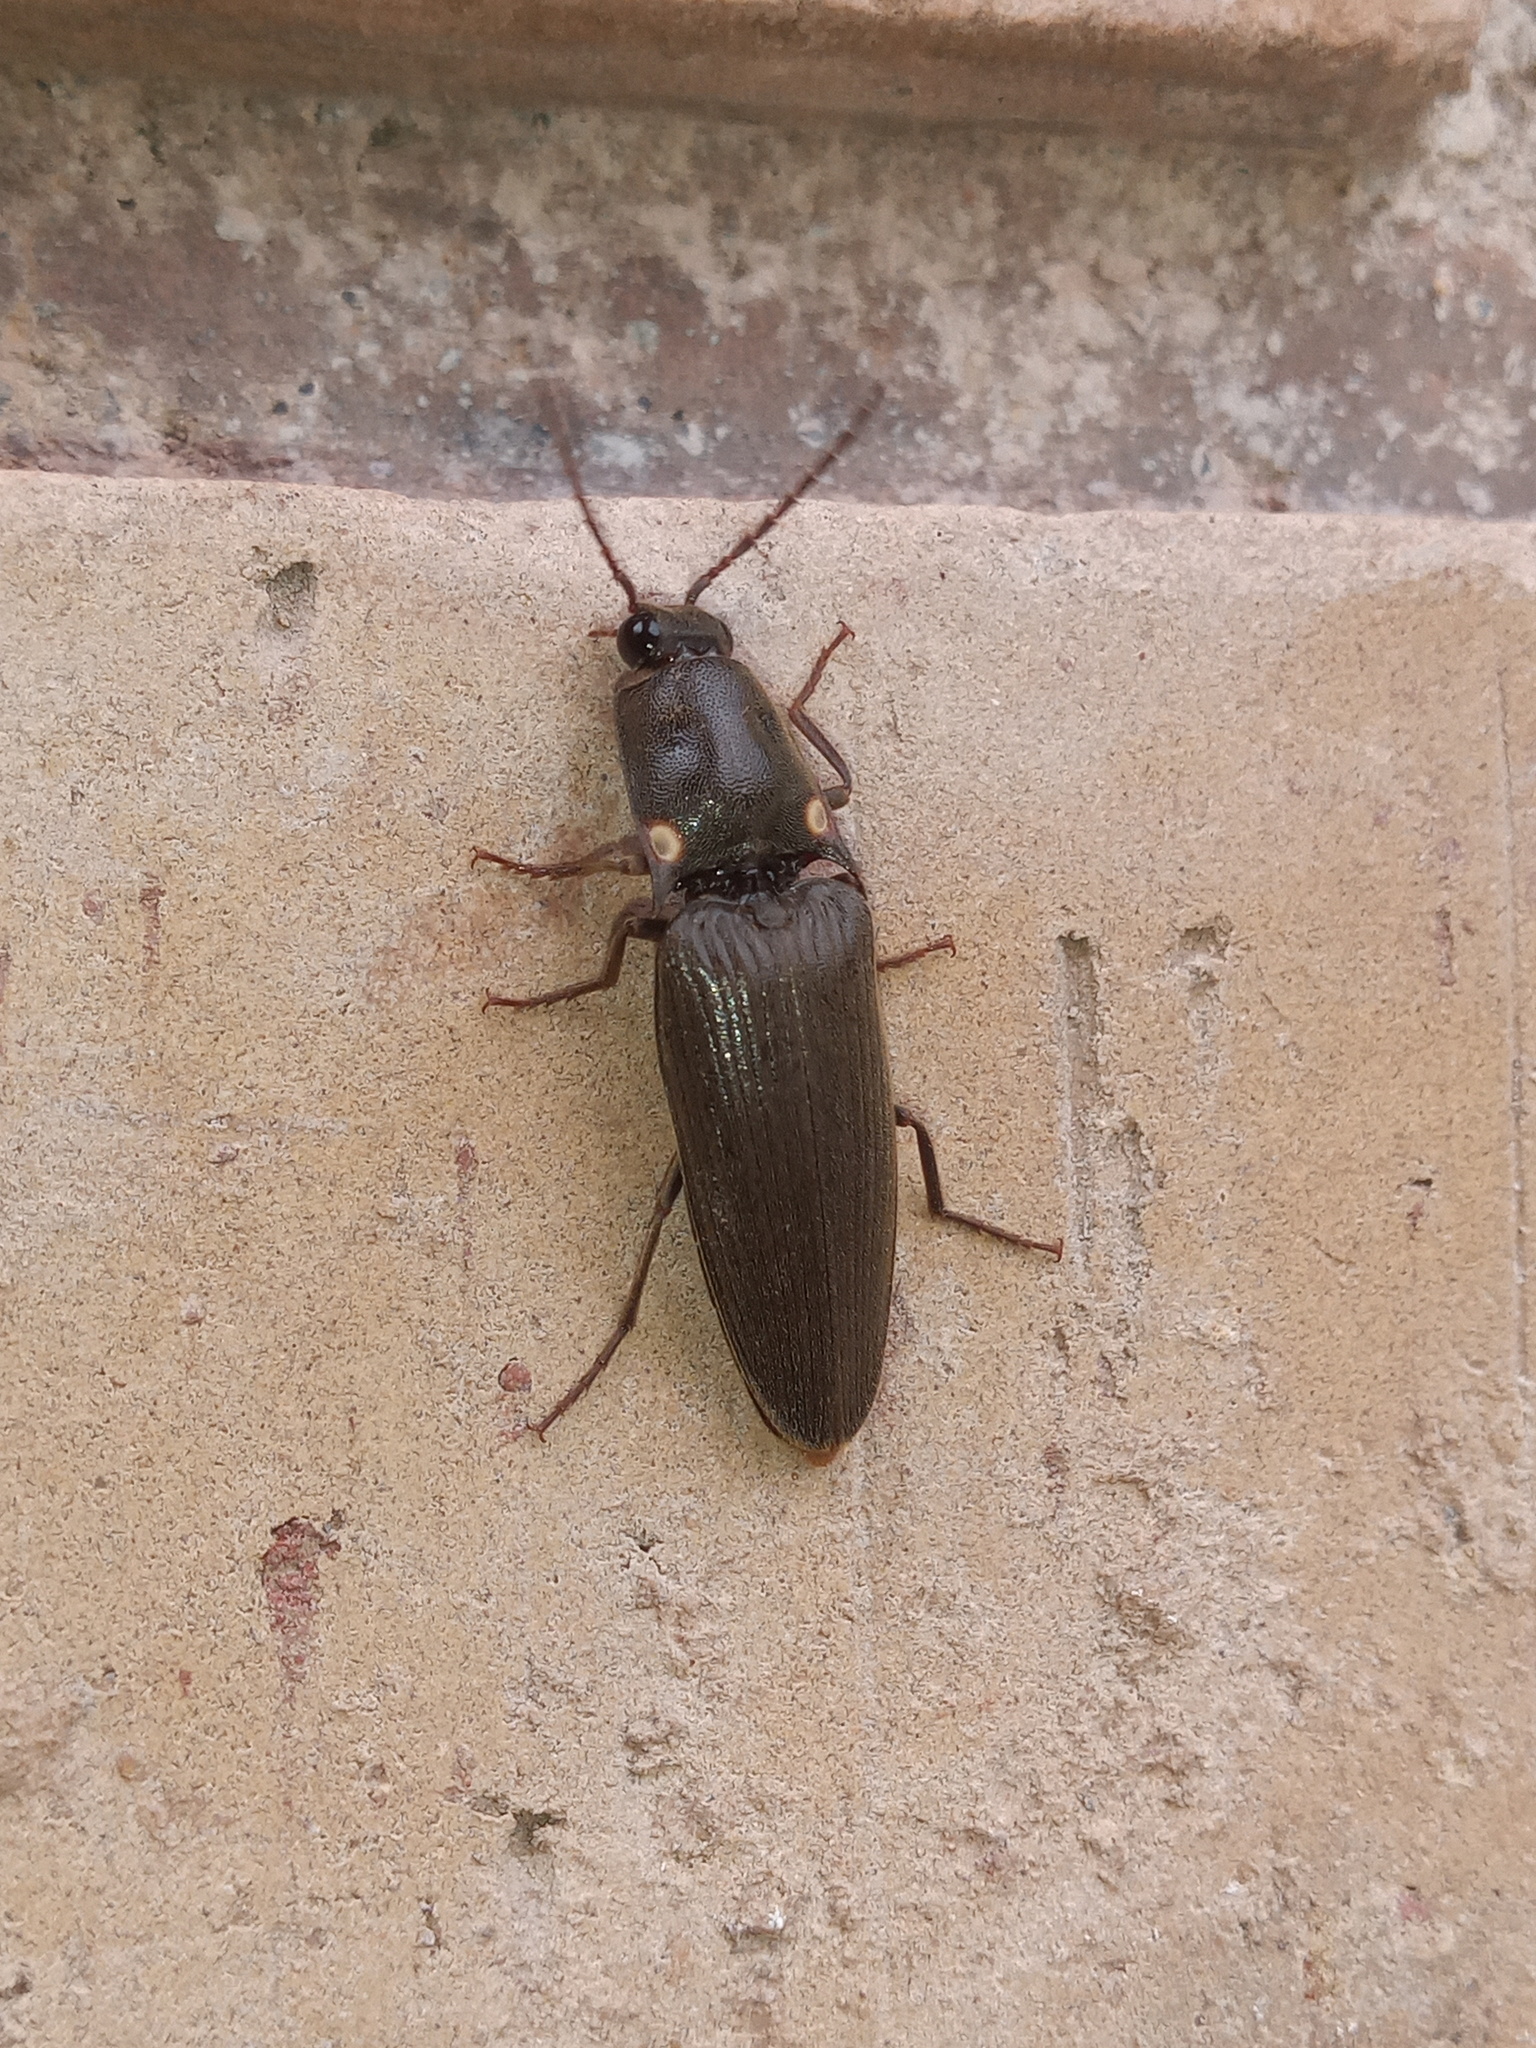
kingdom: Animalia
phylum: Arthropoda
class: Insecta
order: Coleoptera
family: Elateridae
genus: Deilelater
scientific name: Deilelater
